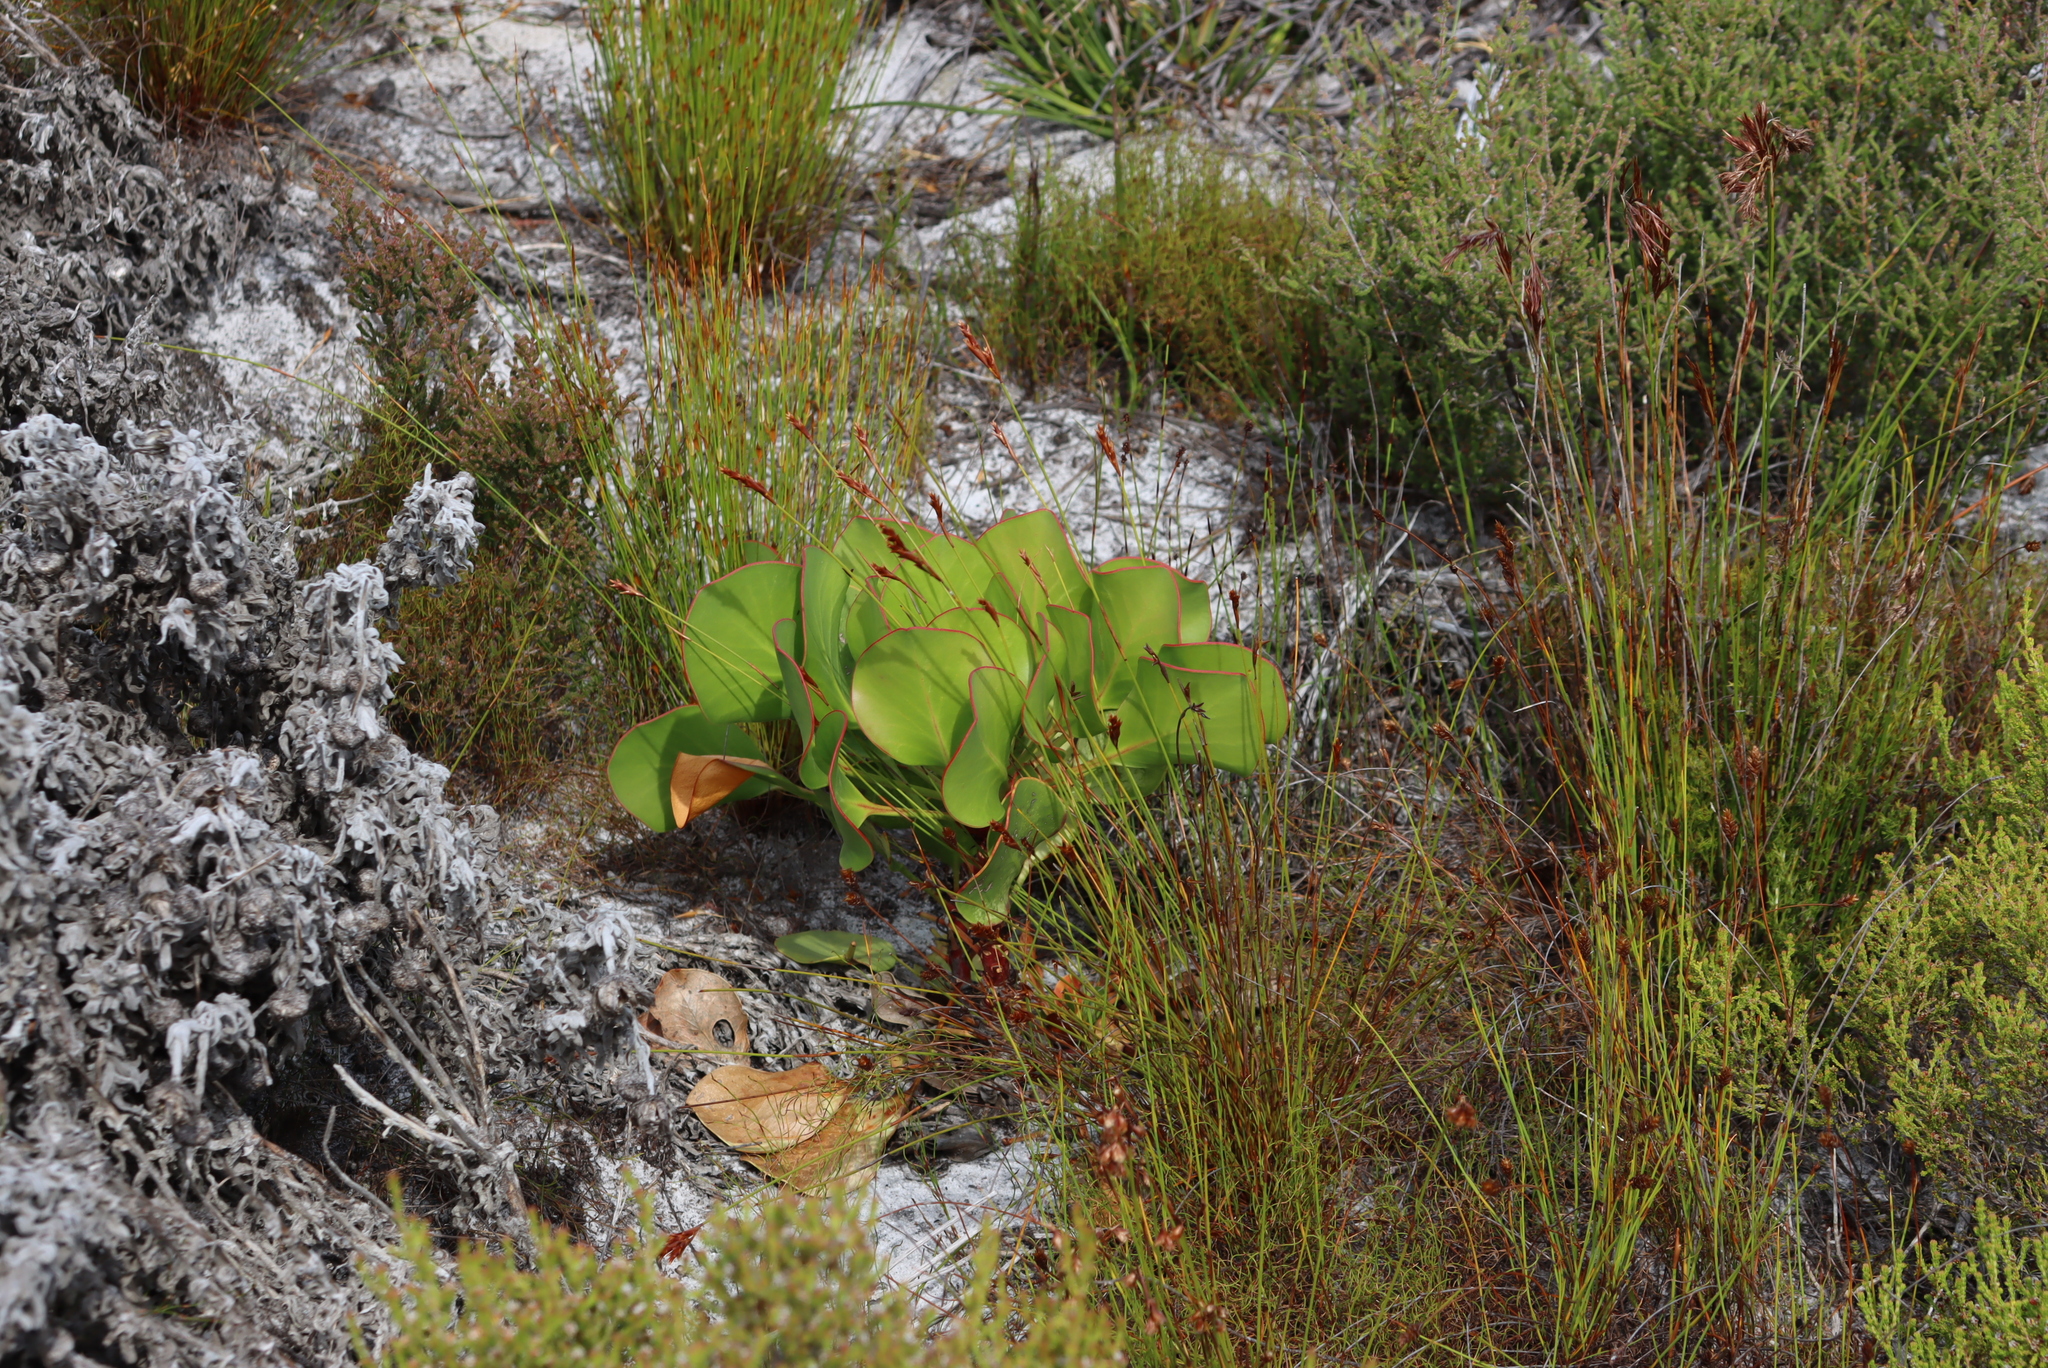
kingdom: Plantae
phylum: Tracheophyta
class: Magnoliopsida
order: Proteales
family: Proteaceae
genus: Protea
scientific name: Protea cynaroides
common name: King protea
